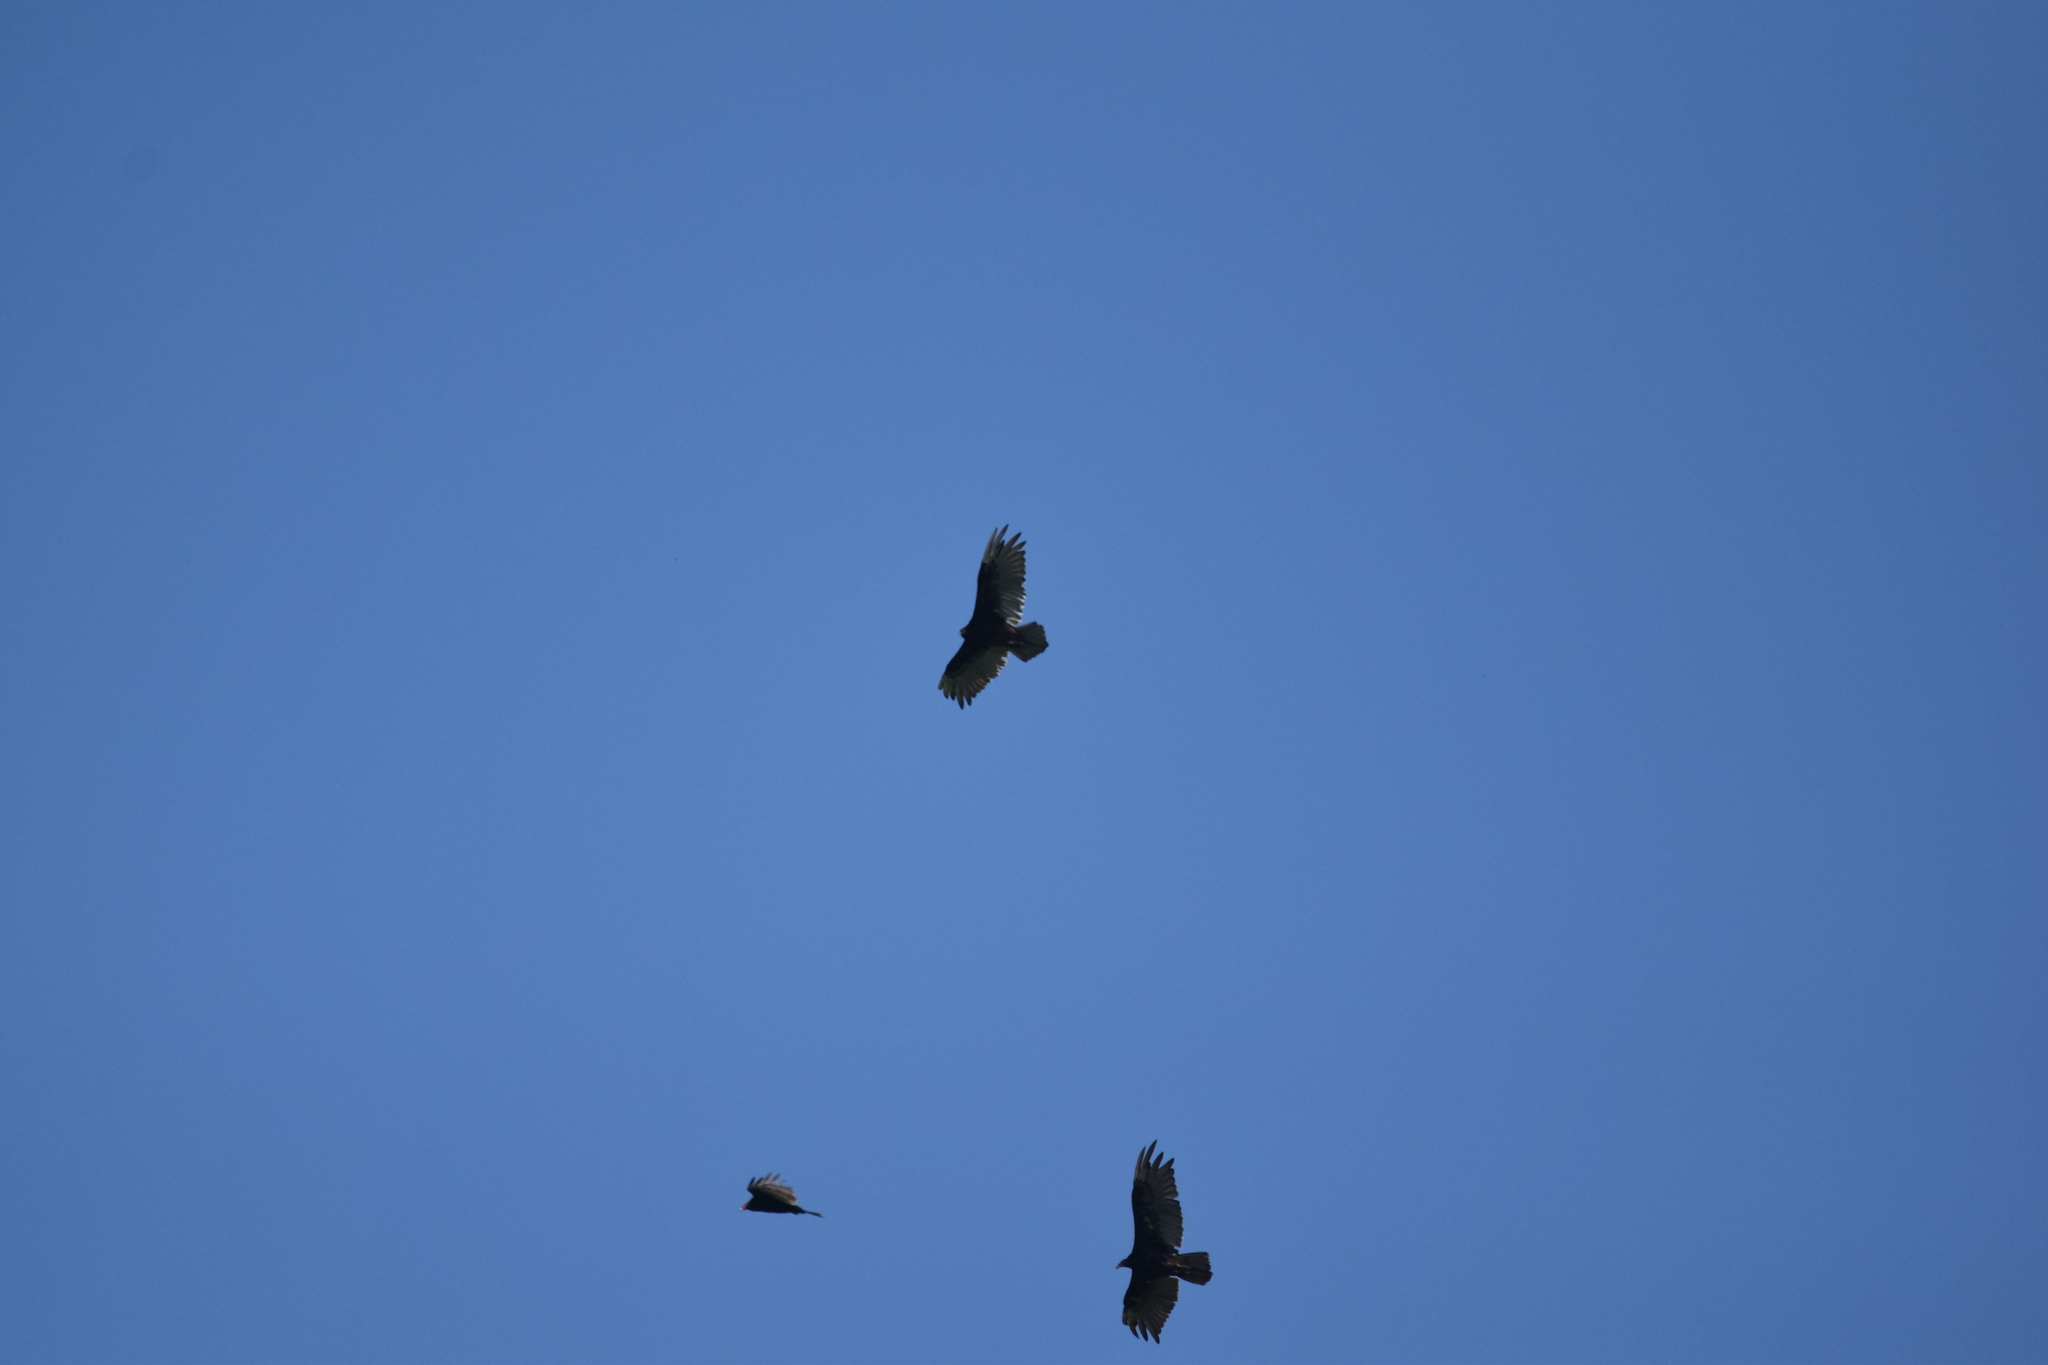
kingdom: Animalia
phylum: Chordata
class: Aves
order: Accipitriformes
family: Cathartidae
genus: Cathartes
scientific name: Cathartes aura
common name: Turkey vulture
